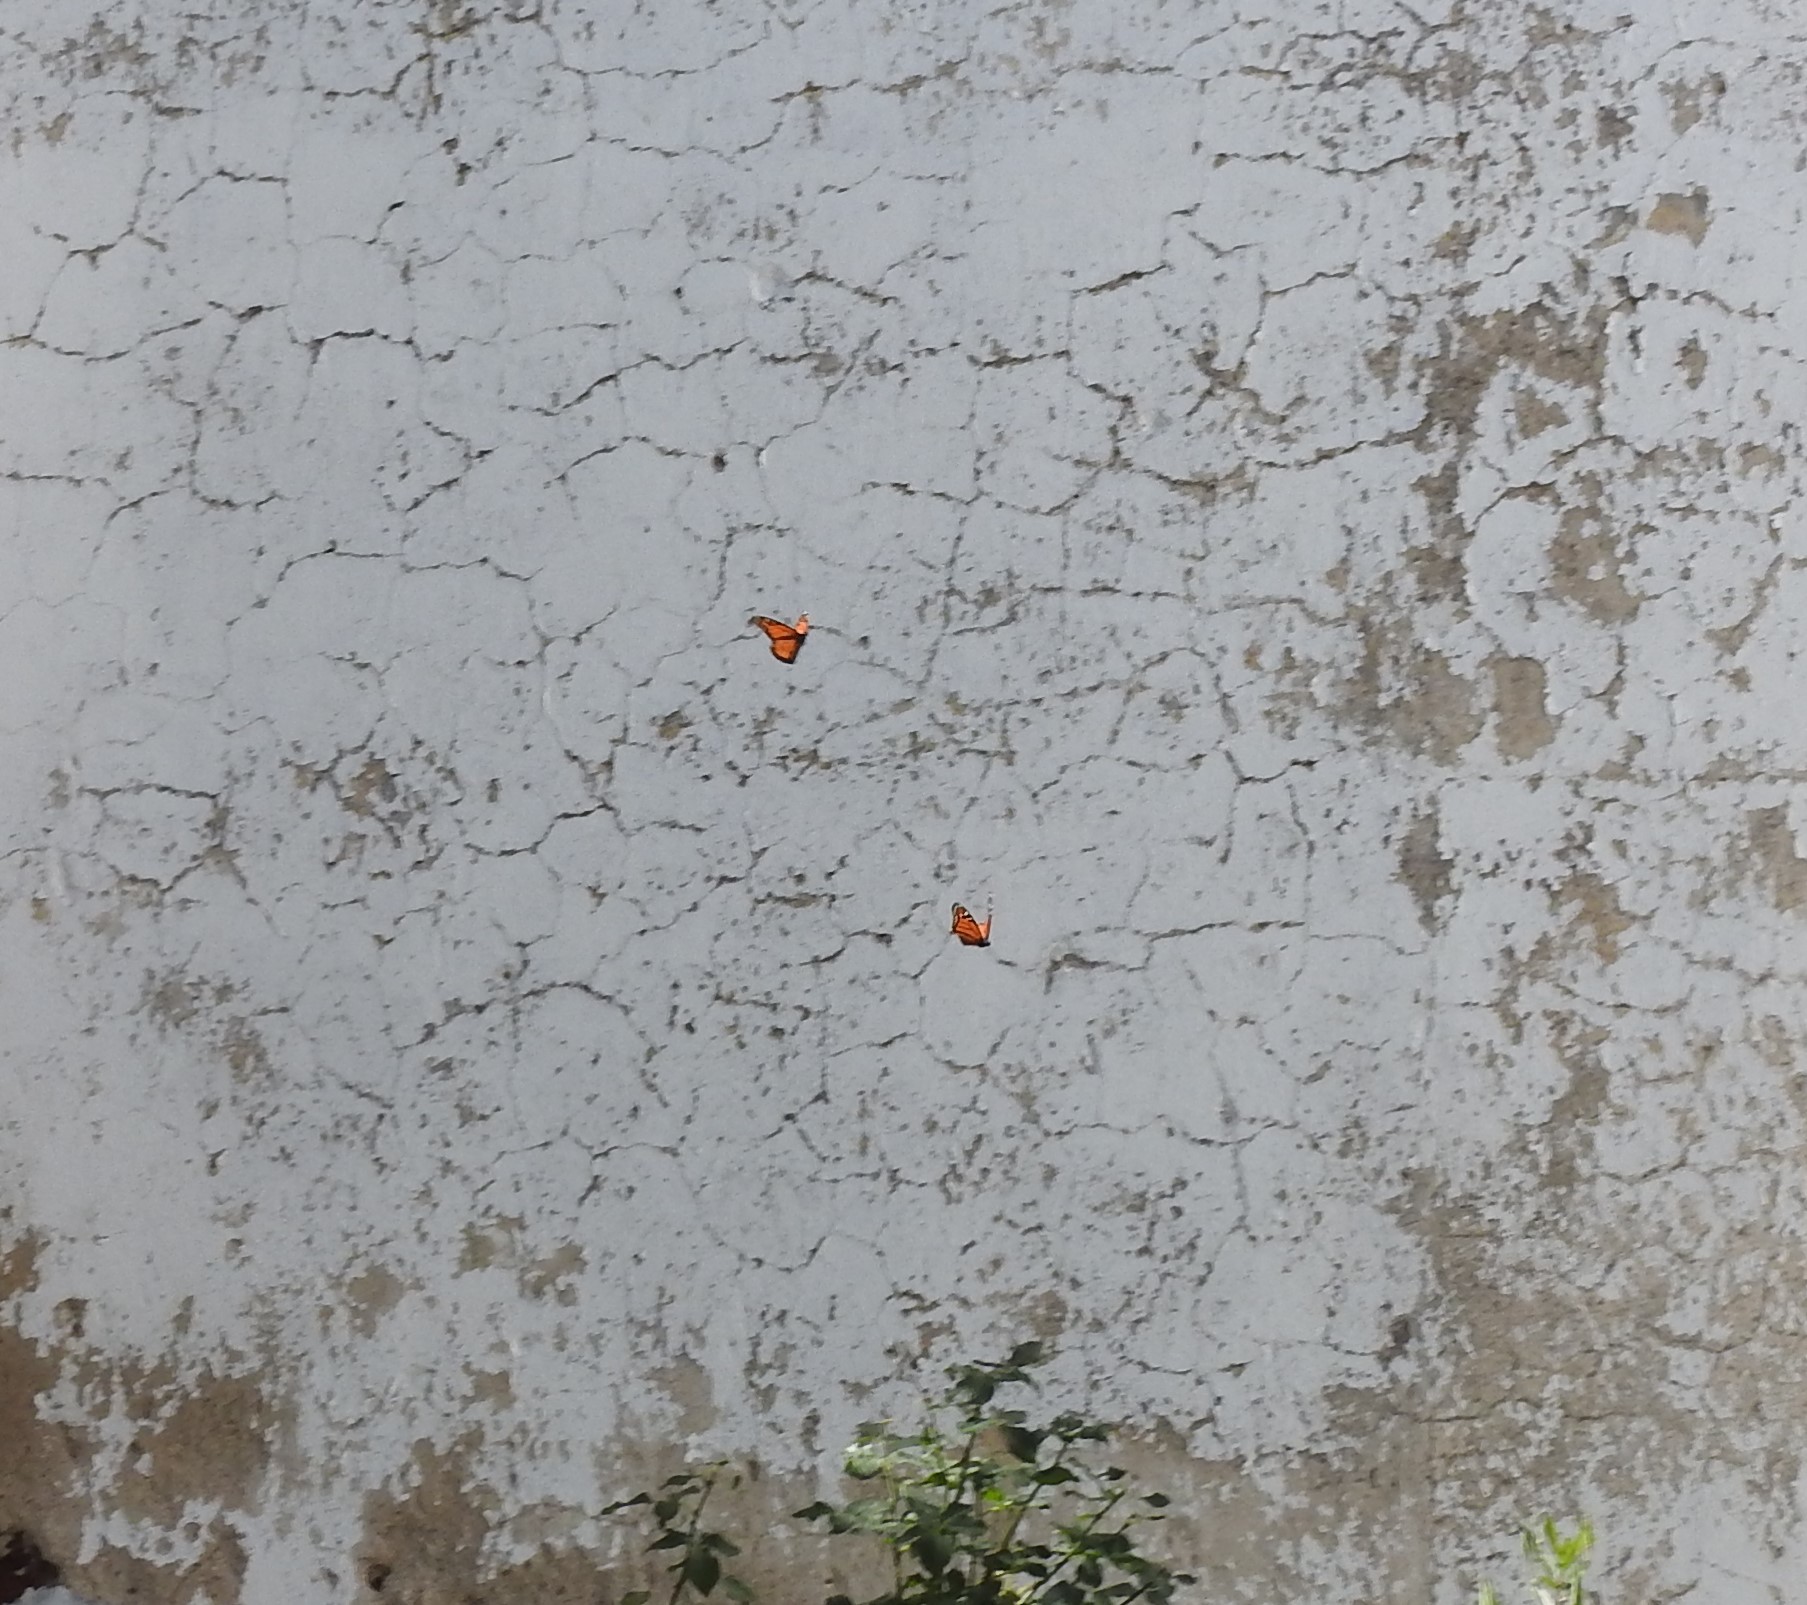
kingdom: Animalia
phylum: Arthropoda
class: Insecta
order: Lepidoptera
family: Nymphalidae
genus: Danaus
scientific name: Danaus plexippus
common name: Monarch
